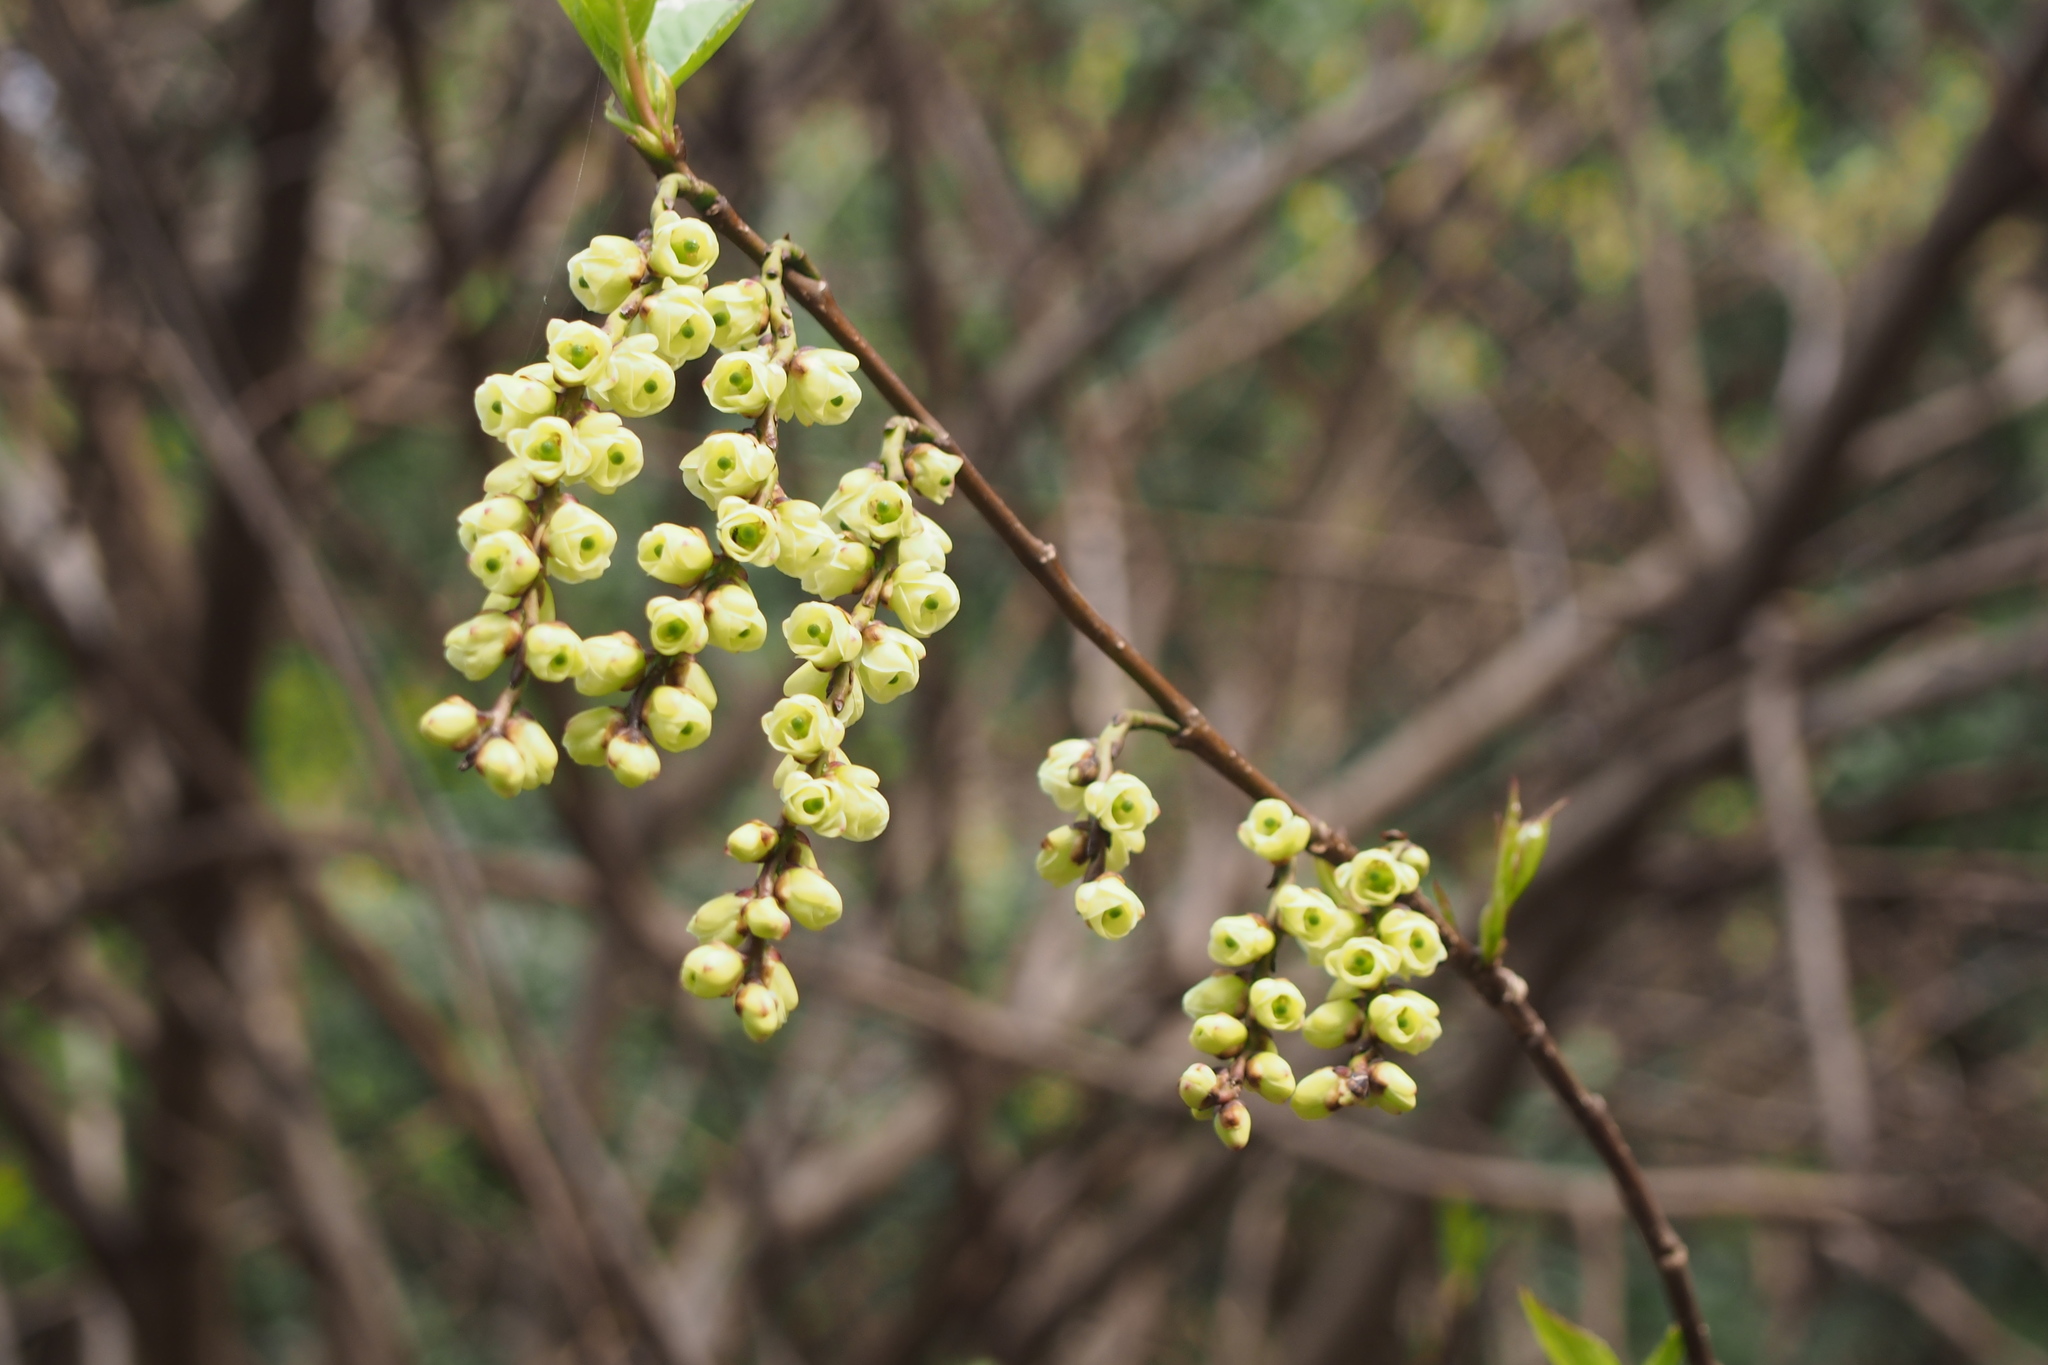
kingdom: Plantae
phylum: Tracheophyta
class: Magnoliopsida
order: Crossosomatales
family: Stachyuraceae
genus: Stachyurus
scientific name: Stachyurus praecox
